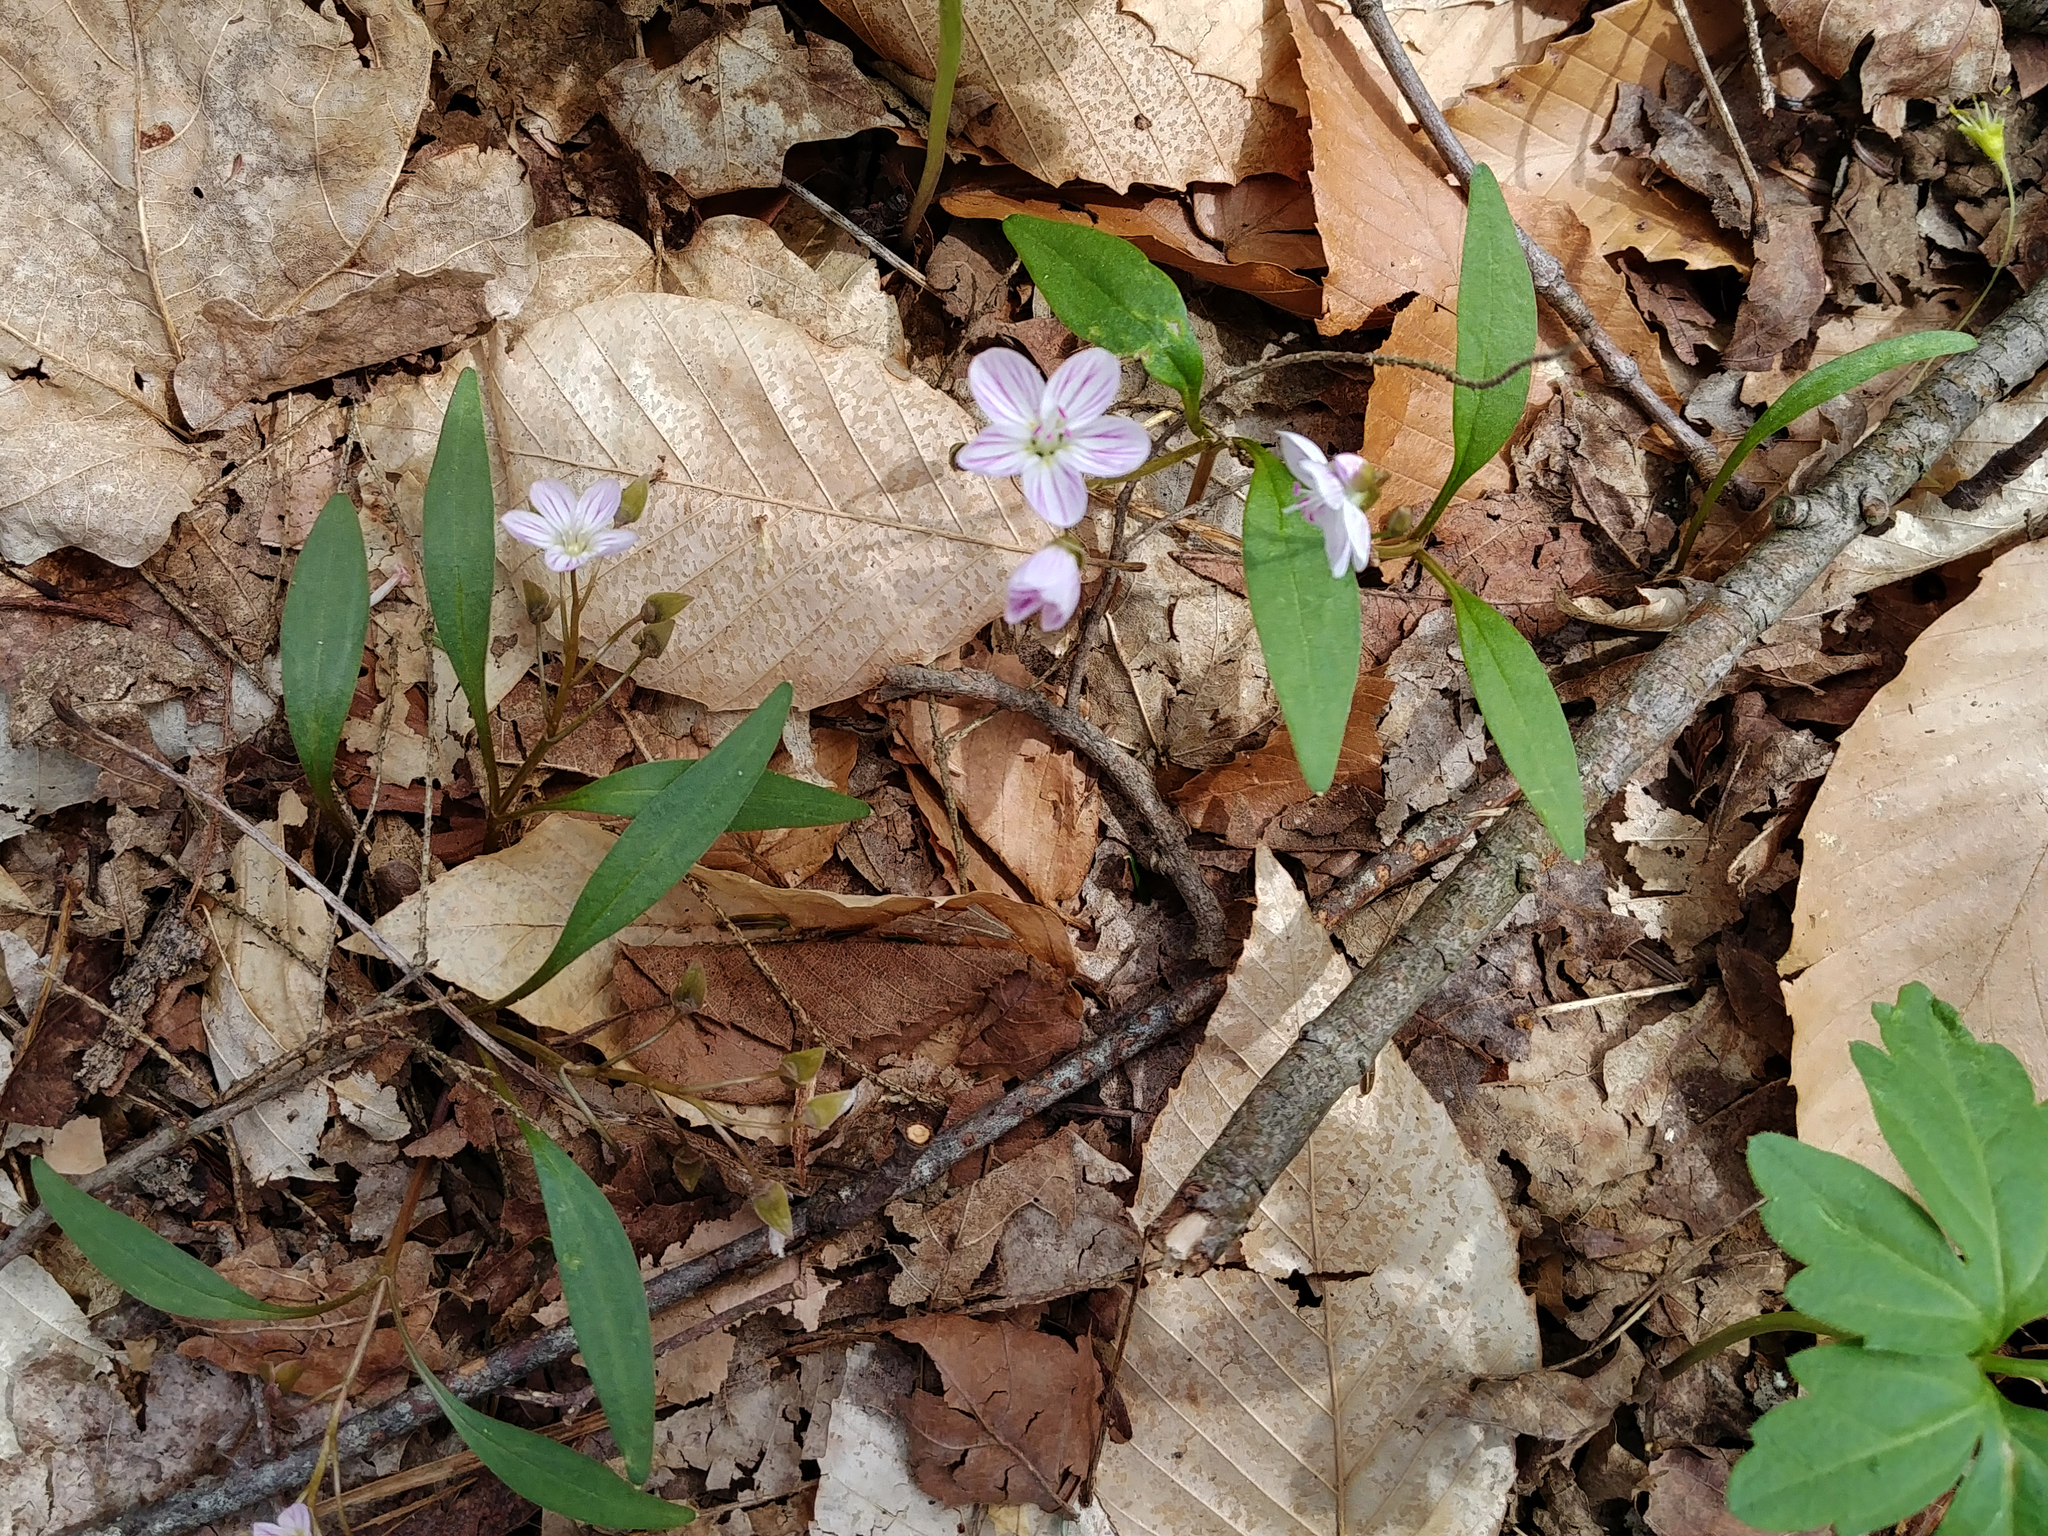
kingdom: Plantae
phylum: Tracheophyta
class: Magnoliopsida
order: Caryophyllales
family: Montiaceae
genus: Claytonia
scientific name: Claytonia caroliniana
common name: Carolina spring beauty
